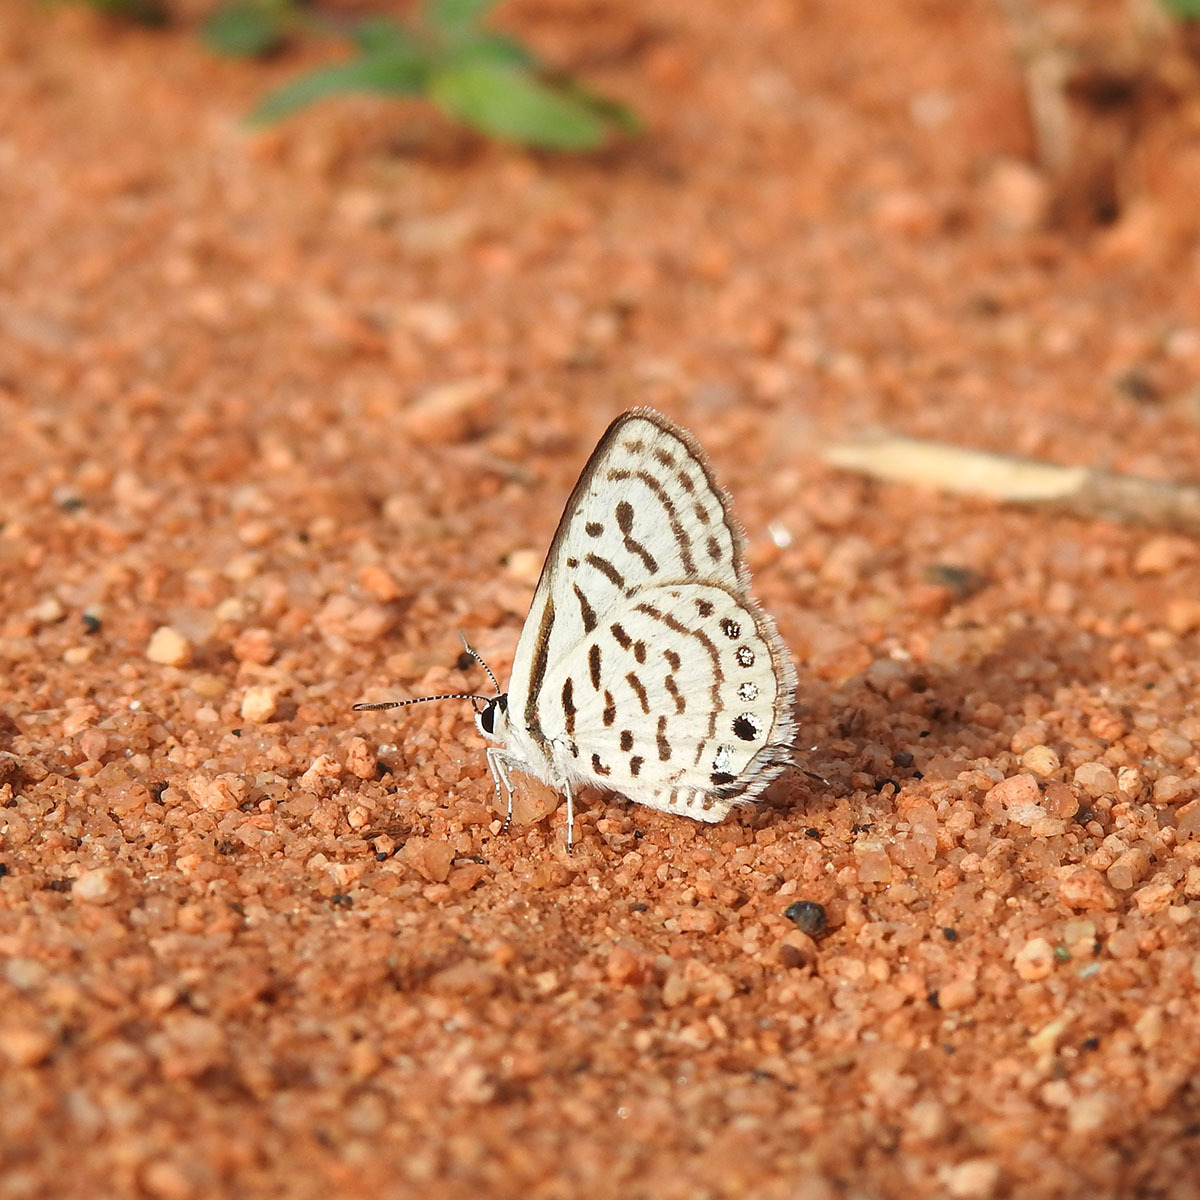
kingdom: Animalia
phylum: Arthropoda
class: Insecta
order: Lepidoptera
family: Lycaenidae
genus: Tarucus
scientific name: Tarucus balkanica
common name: Little tiger blue
